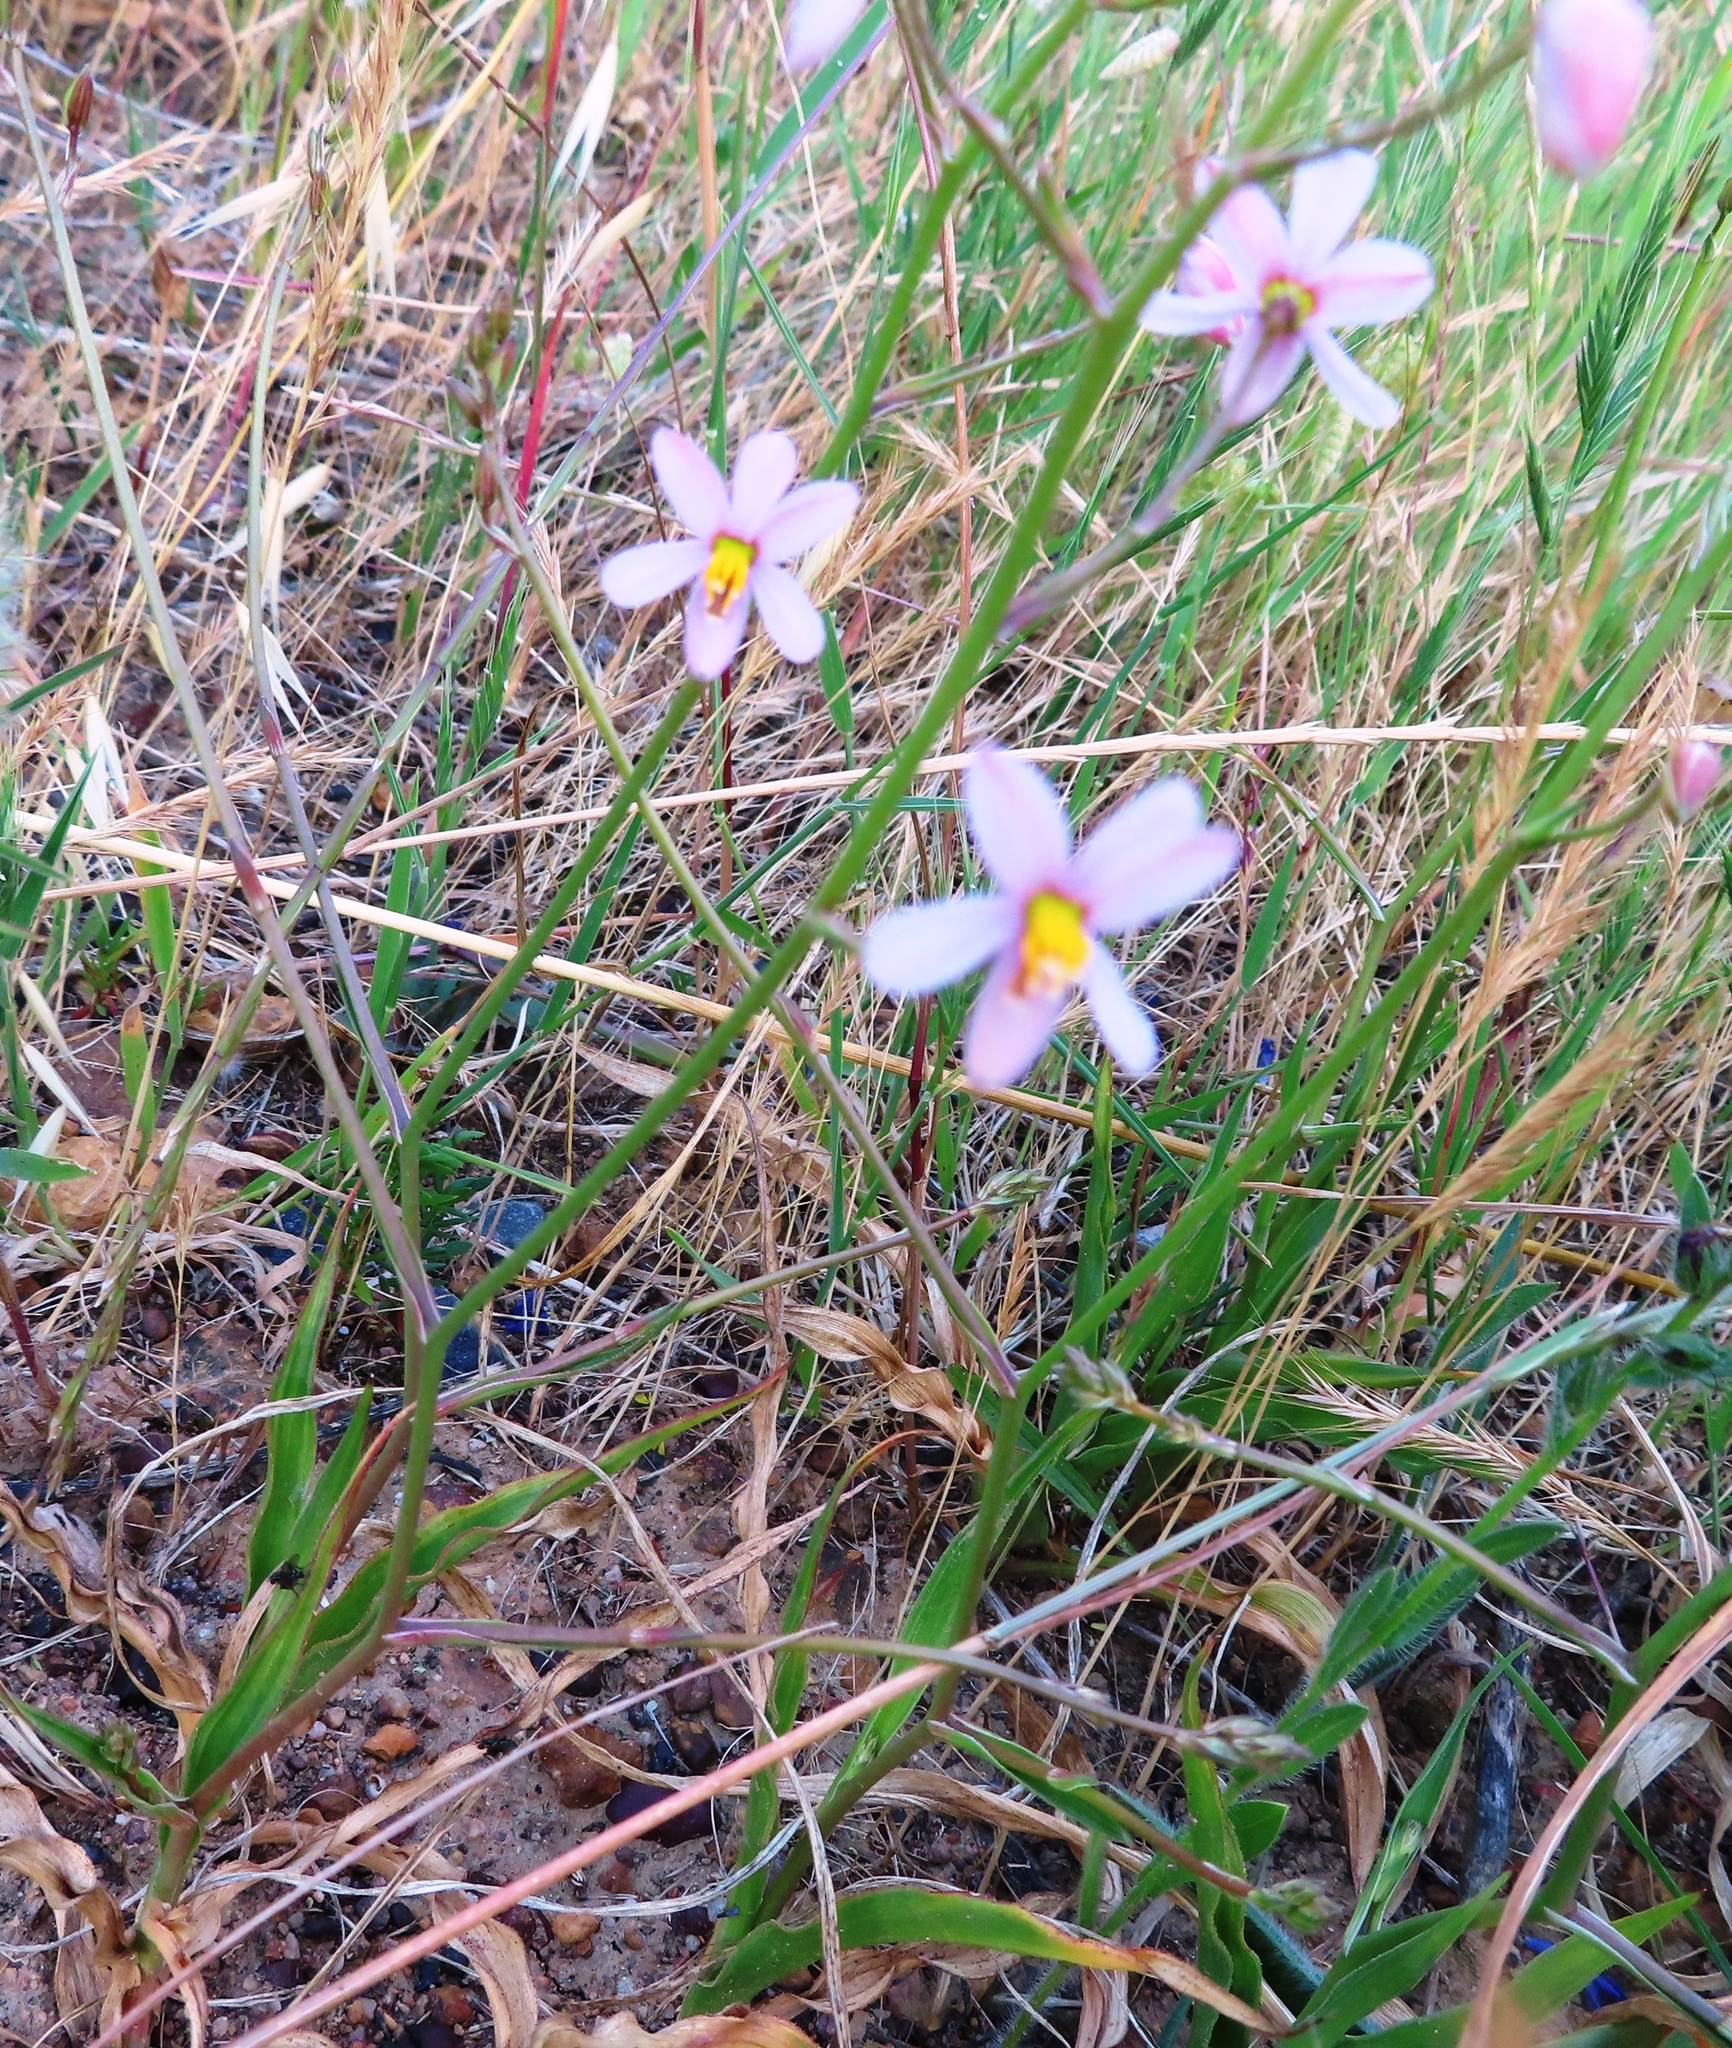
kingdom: Plantae
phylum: Tracheophyta
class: Liliopsida
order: Asparagales
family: Tecophilaeaceae
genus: Cyanella
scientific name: Cyanella hyacinthoides
